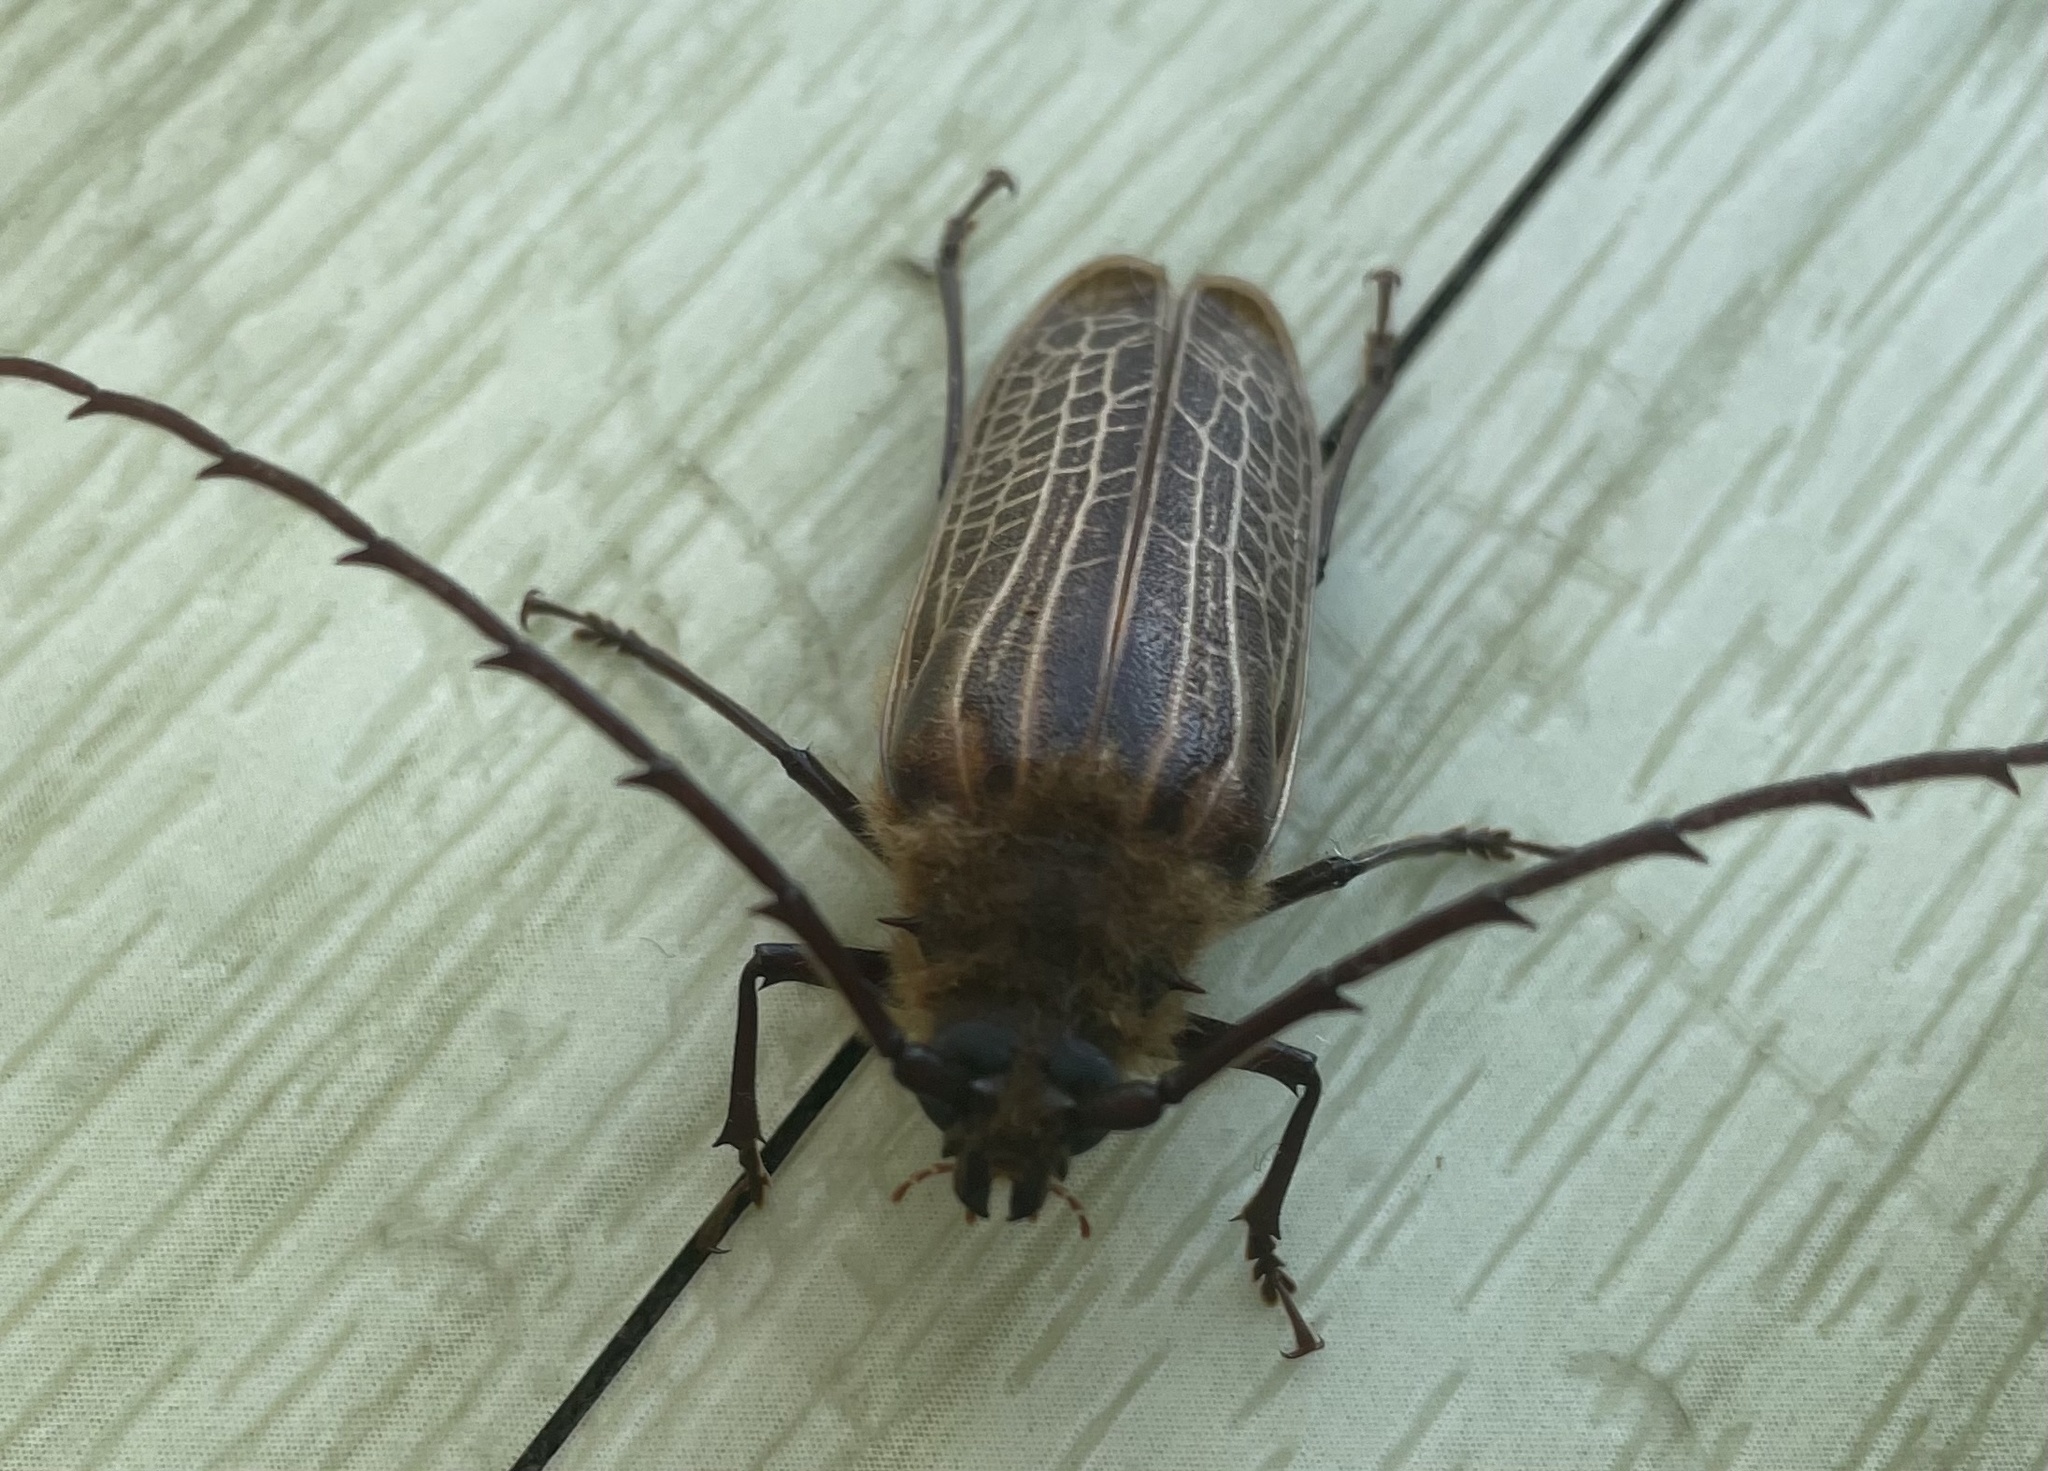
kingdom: Animalia
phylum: Arthropoda
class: Insecta
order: Coleoptera
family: Cerambycidae
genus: Prionoplus
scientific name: Prionoplus reticularis
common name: Huhu beetle
